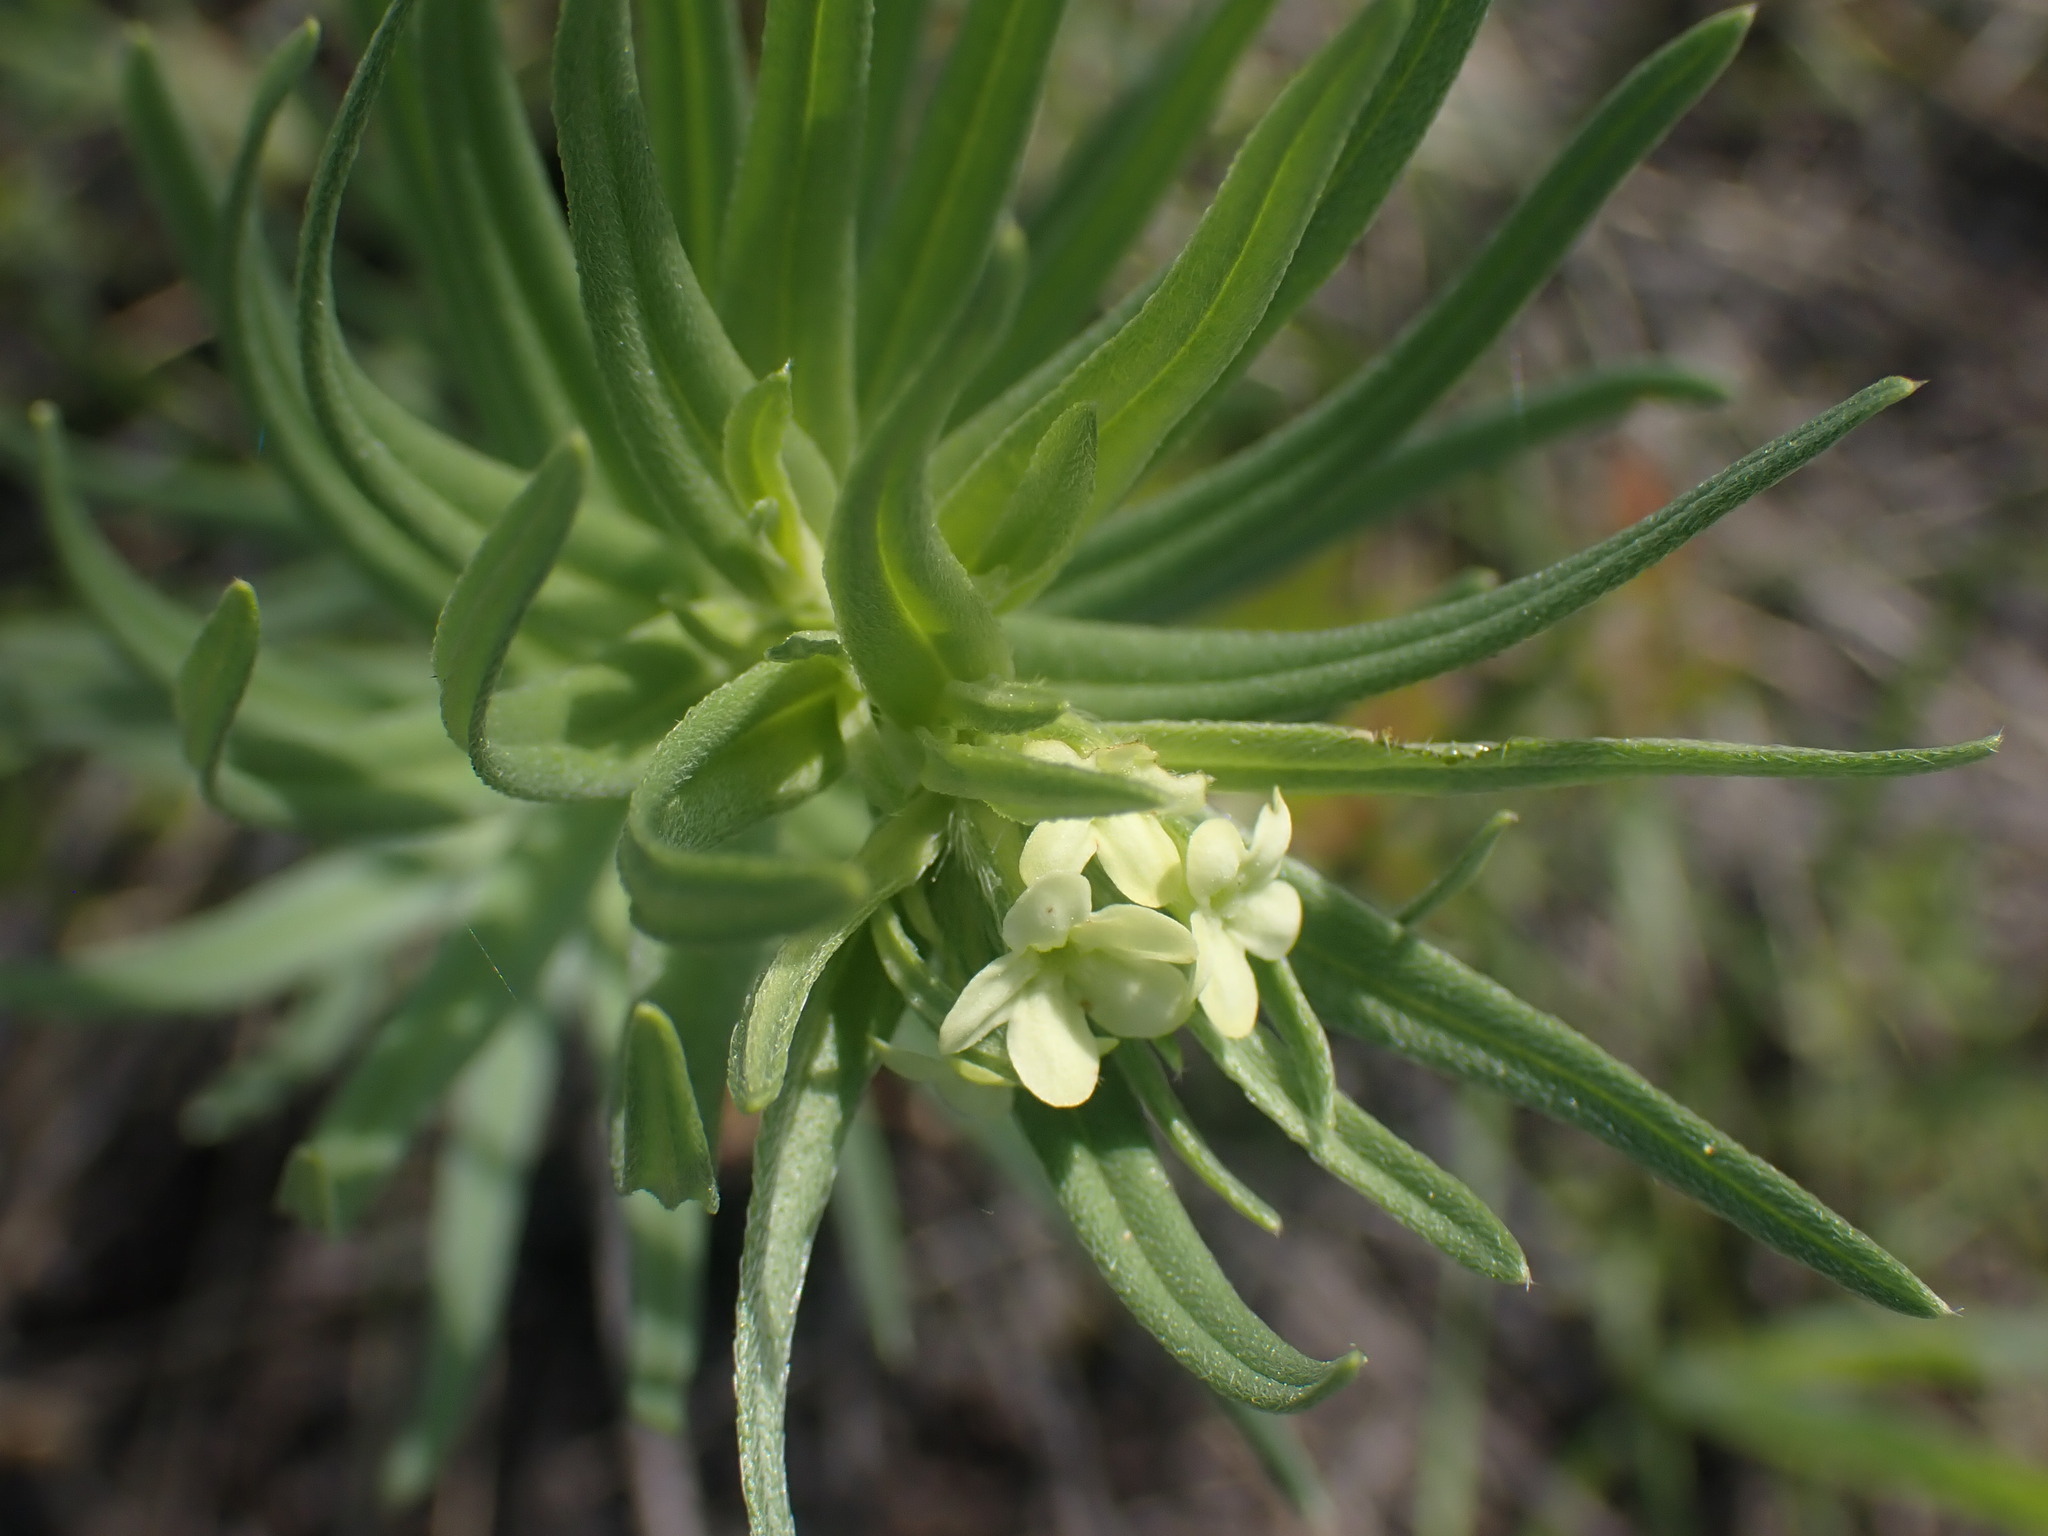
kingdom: Plantae
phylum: Tracheophyta
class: Magnoliopsida
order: Boraginales
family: Boraginaceae
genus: Lithospermum
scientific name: Lithospermum ruderale
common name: Western gromwell
